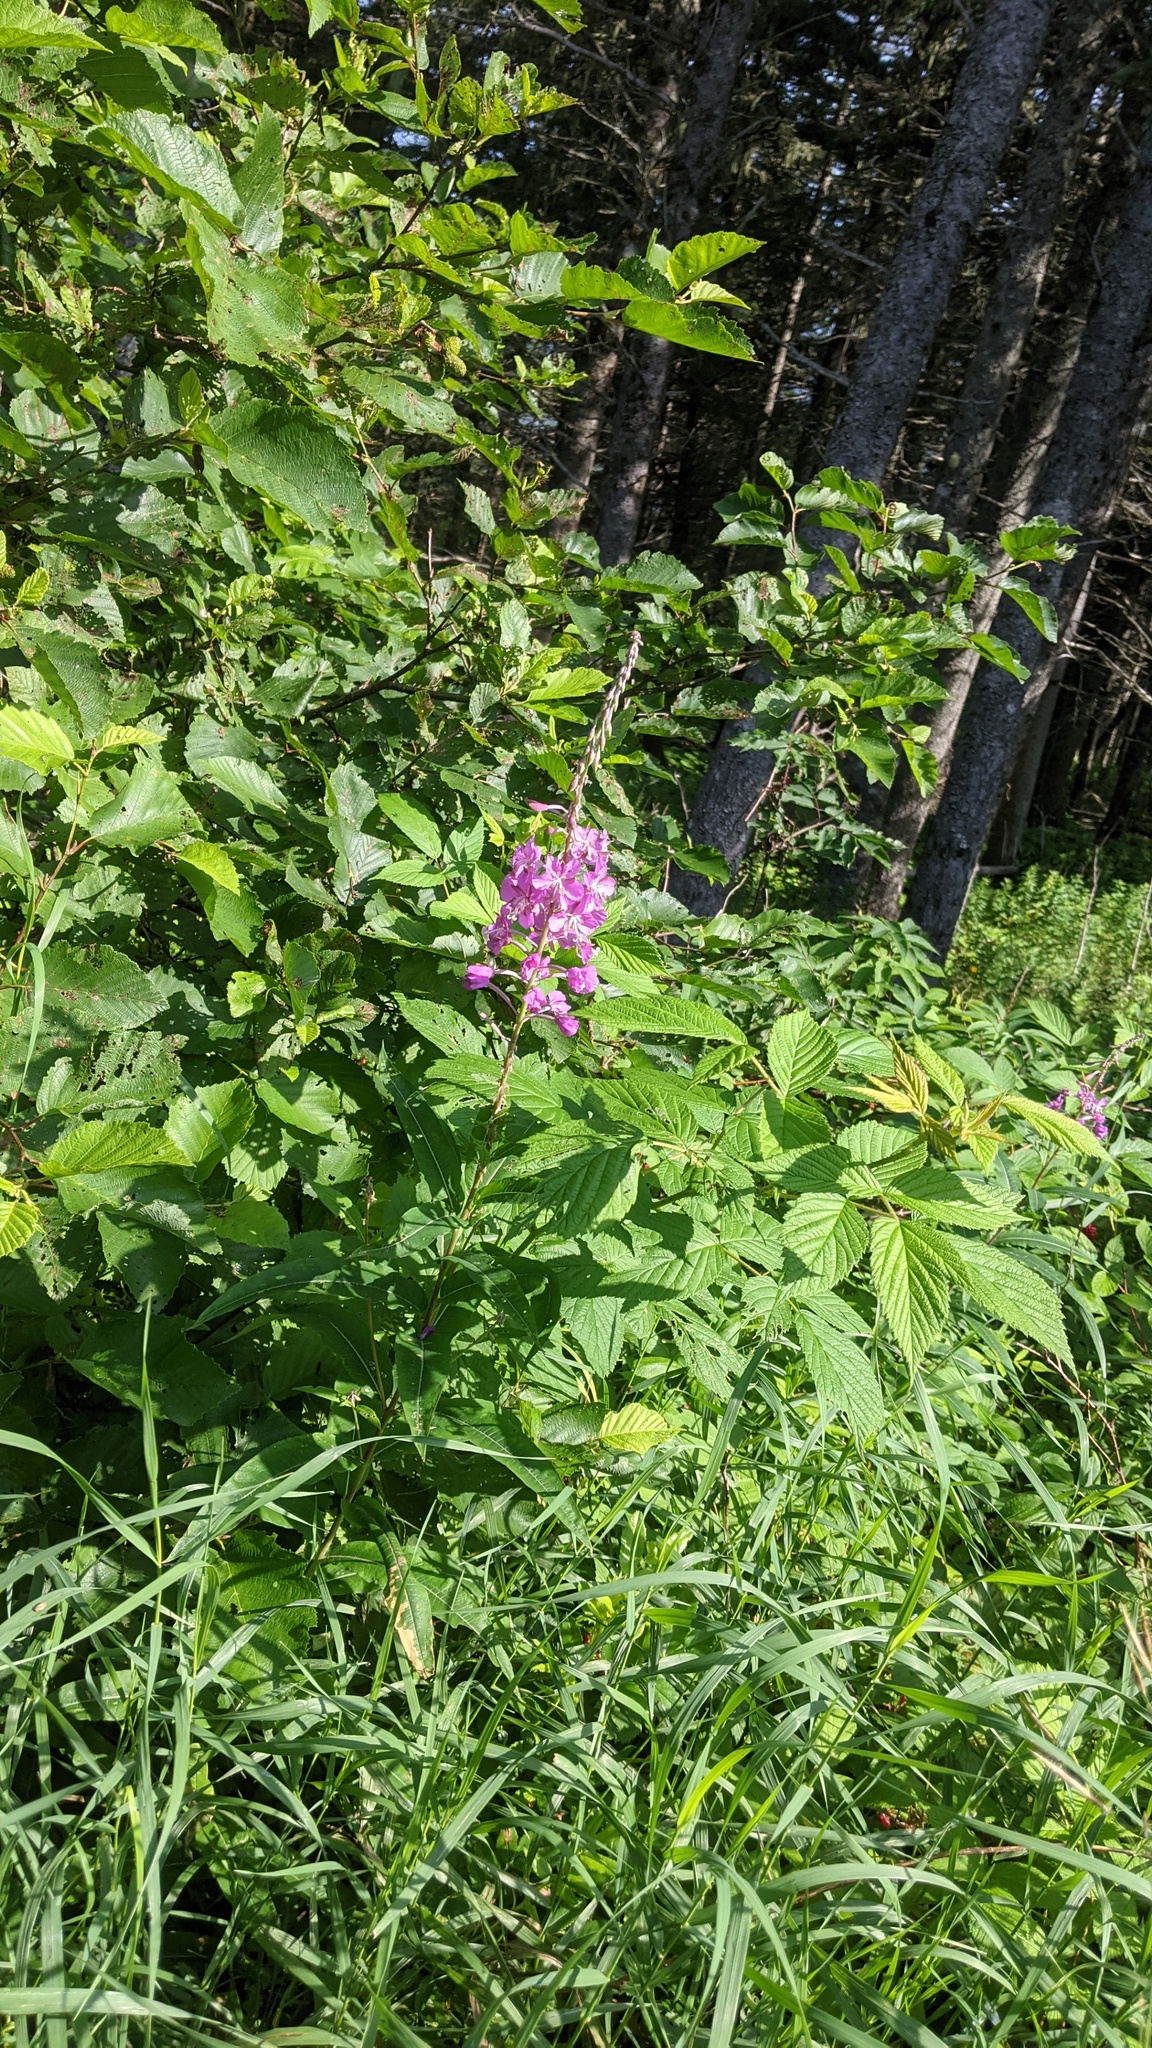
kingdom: Plantae
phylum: Tracheophyta
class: Magnoliopsida
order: Myrtales
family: Onagraceae
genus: Chamaenerion
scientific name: Chamaenerion angustifolium
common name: Fireweed
